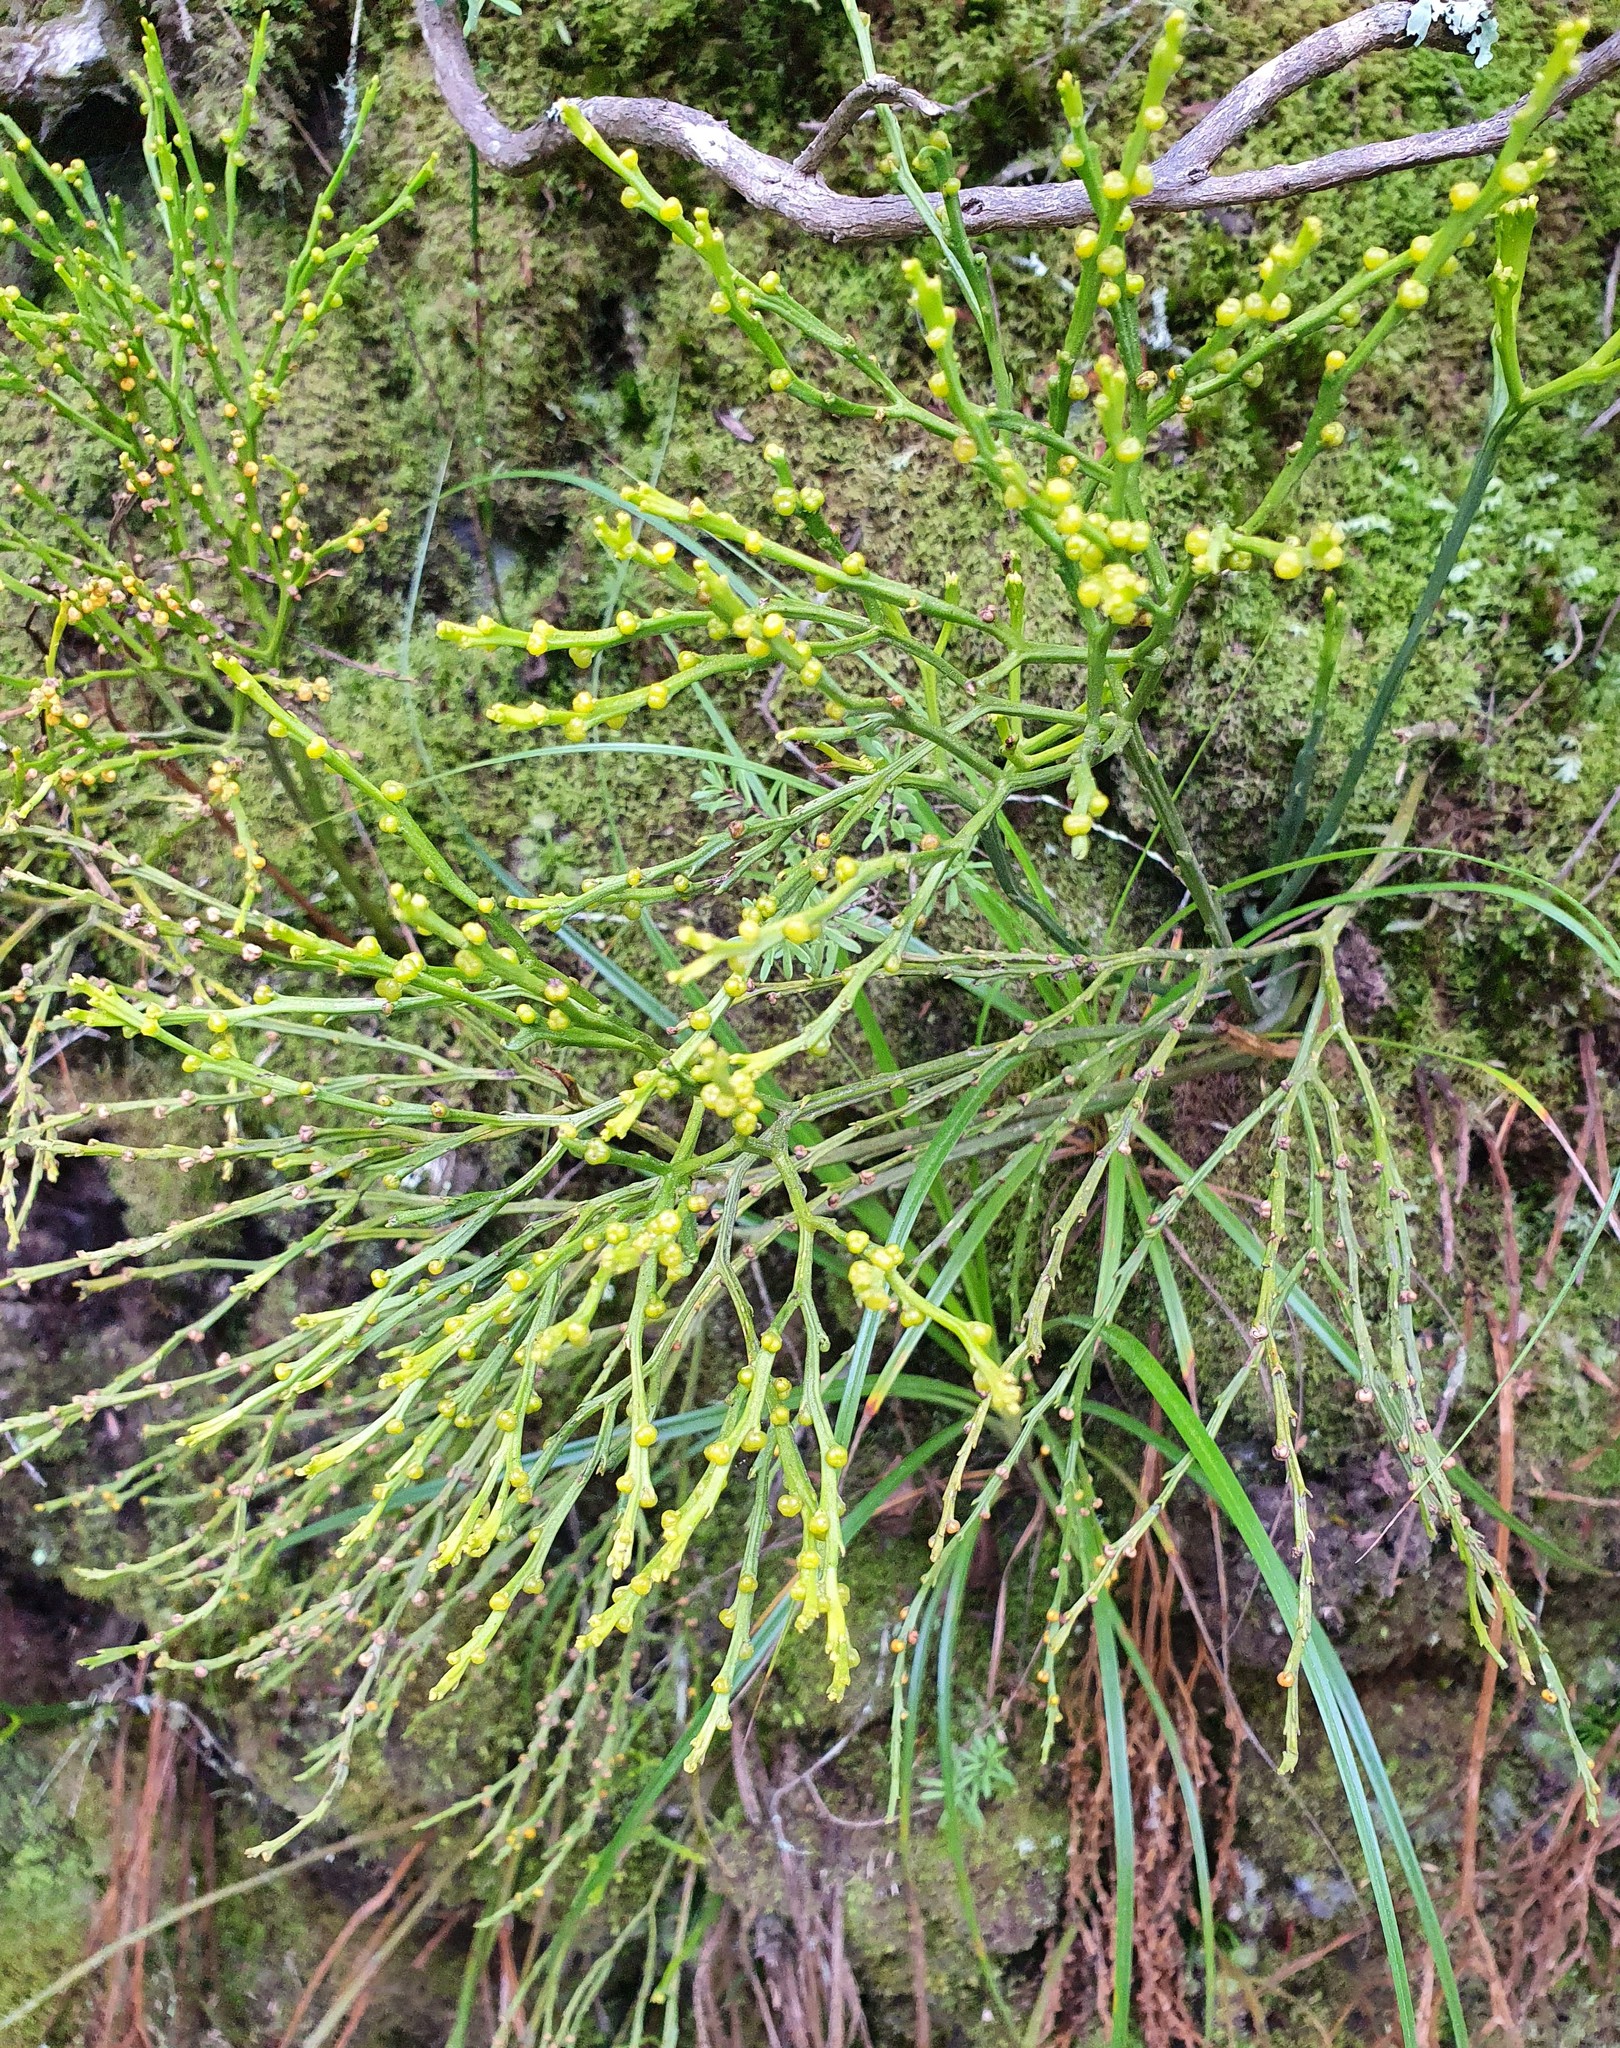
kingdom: Plantae
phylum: Tracheophyta
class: Polypodiopsida
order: Psilotales
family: Psilotaceae
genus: Psilotum
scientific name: Psilotum nudum
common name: Skeleton fork fern
